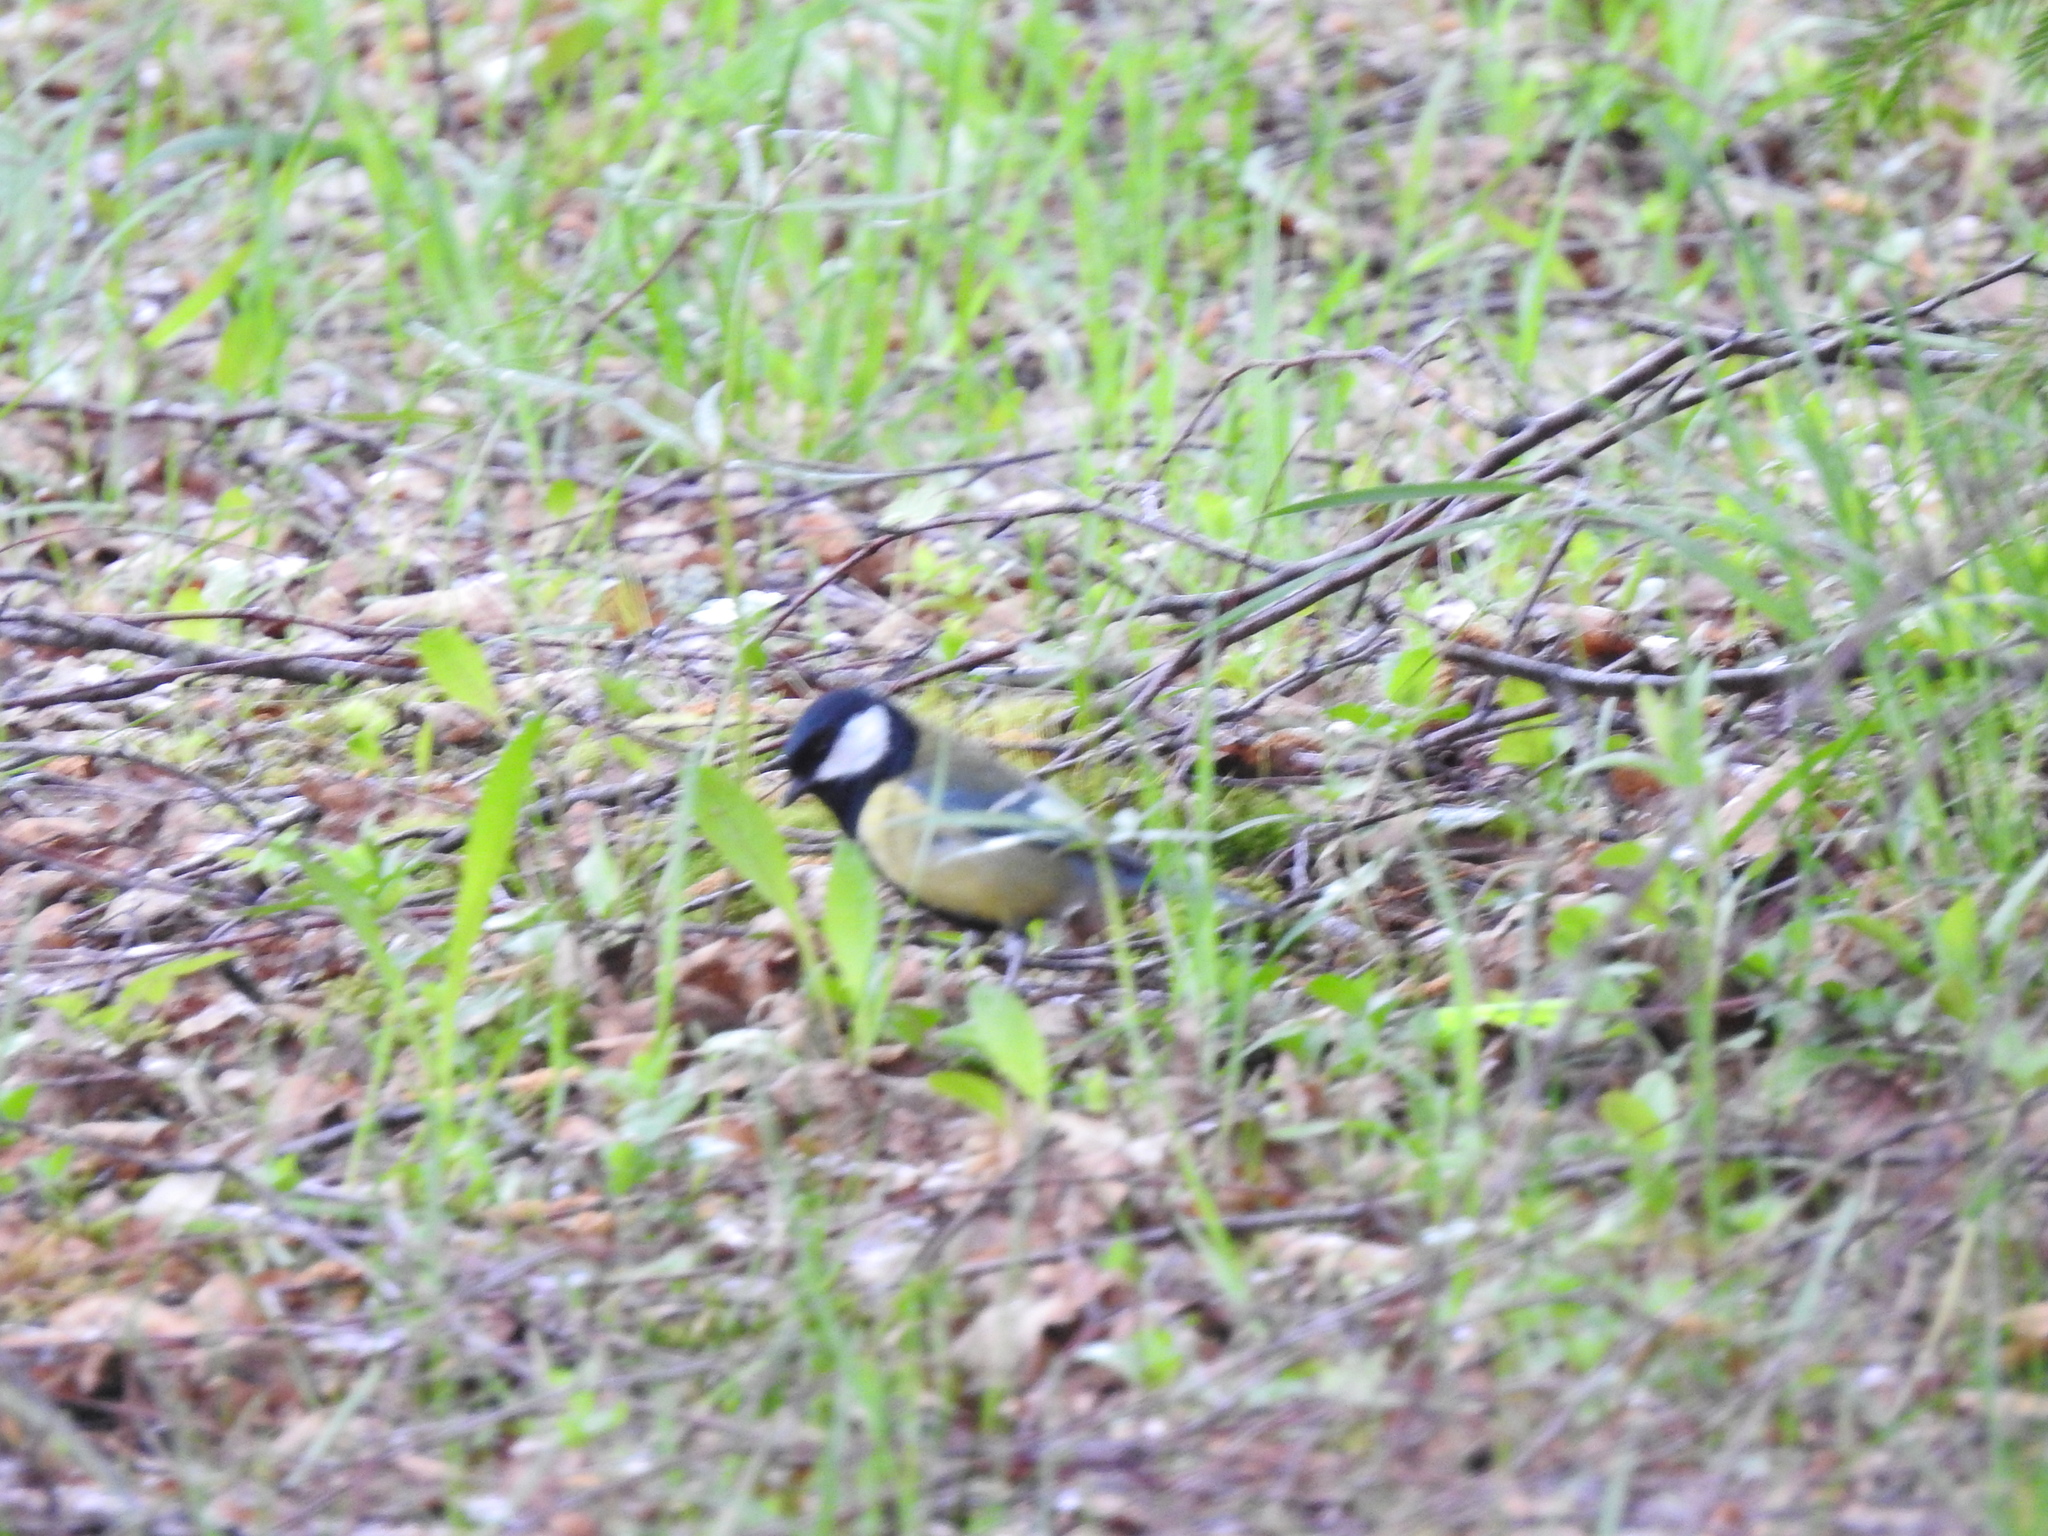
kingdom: Animalia
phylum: Chordata
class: Aves
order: Passeriformes
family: Paridae
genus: Parus
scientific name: Parus major
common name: Great tit
